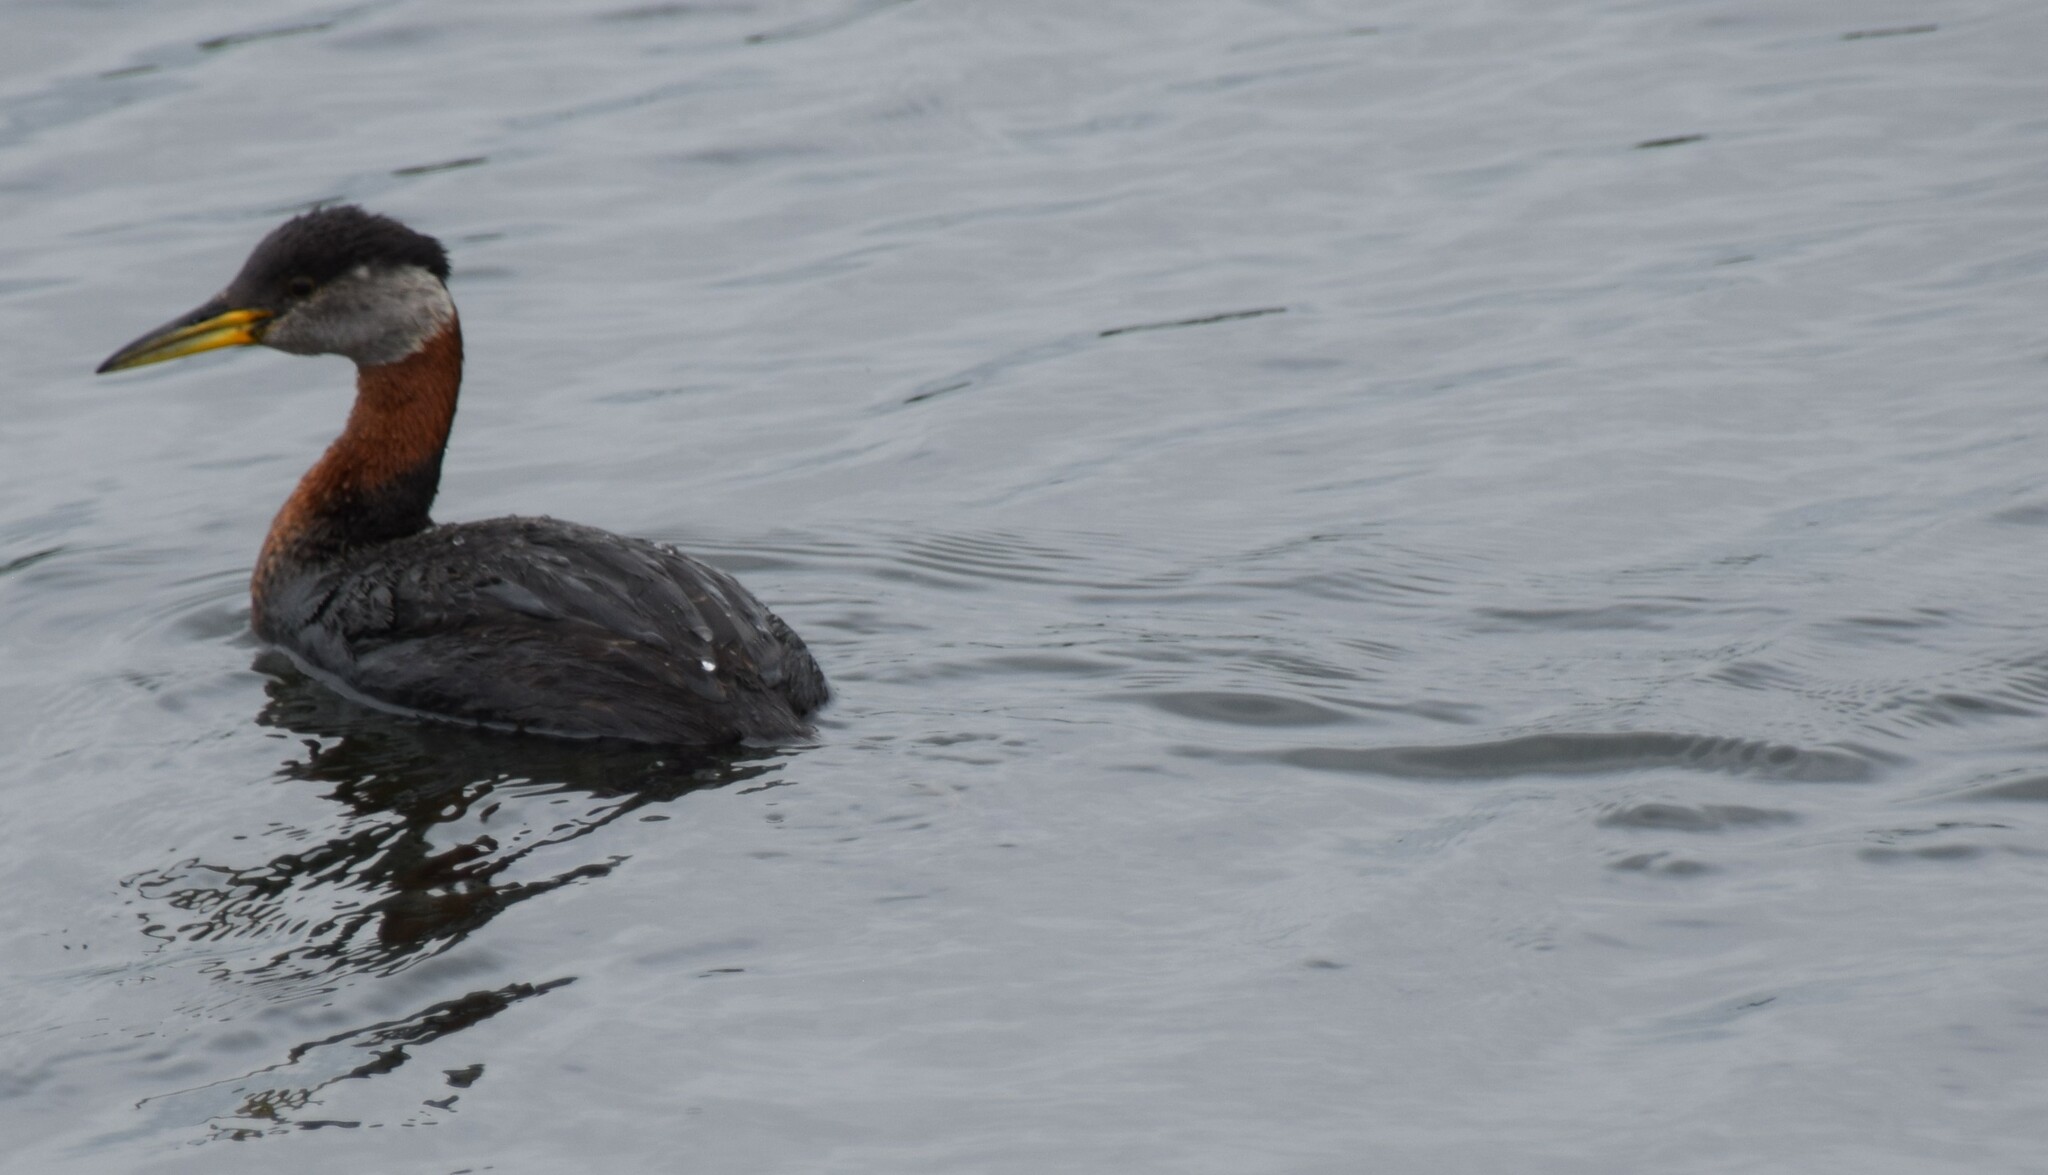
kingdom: Animalia
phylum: Chordata
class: Aves
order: Podicipediformes
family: Podicipedidae
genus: Podiceps
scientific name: Podiceps grisegena
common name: Red-necked grebe
